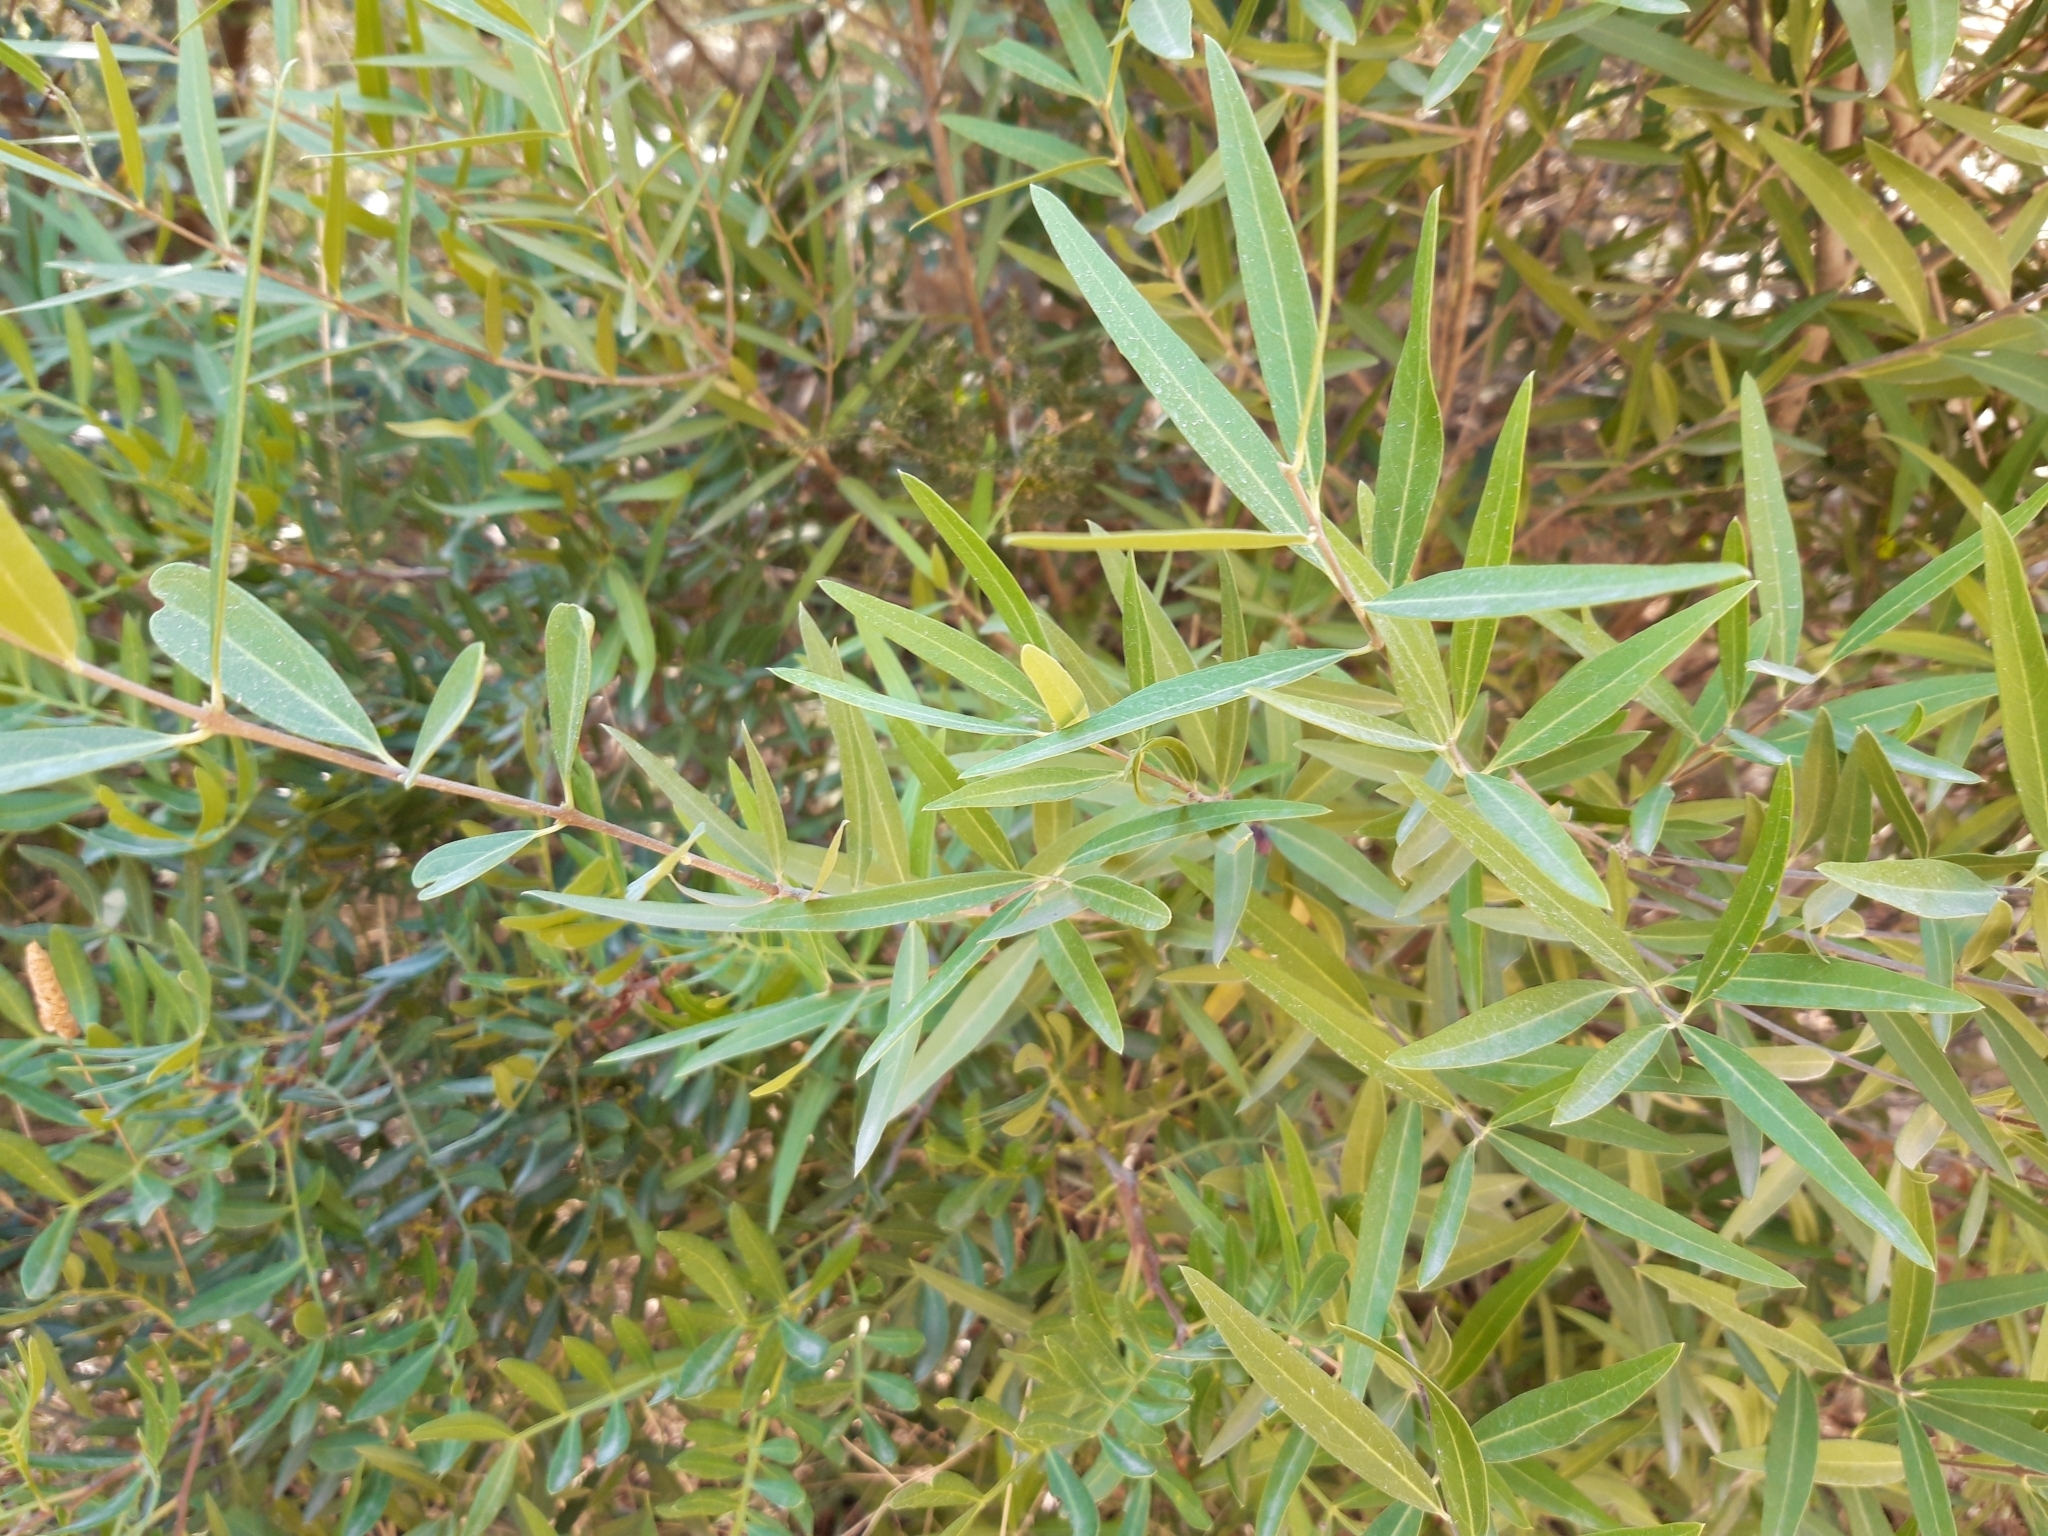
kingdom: Plantae
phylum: Tracheophyta
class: Magnoliopsida
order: Lamiales
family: Oleaceae
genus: Phillyrea
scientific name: Phillyrea angustifolia
